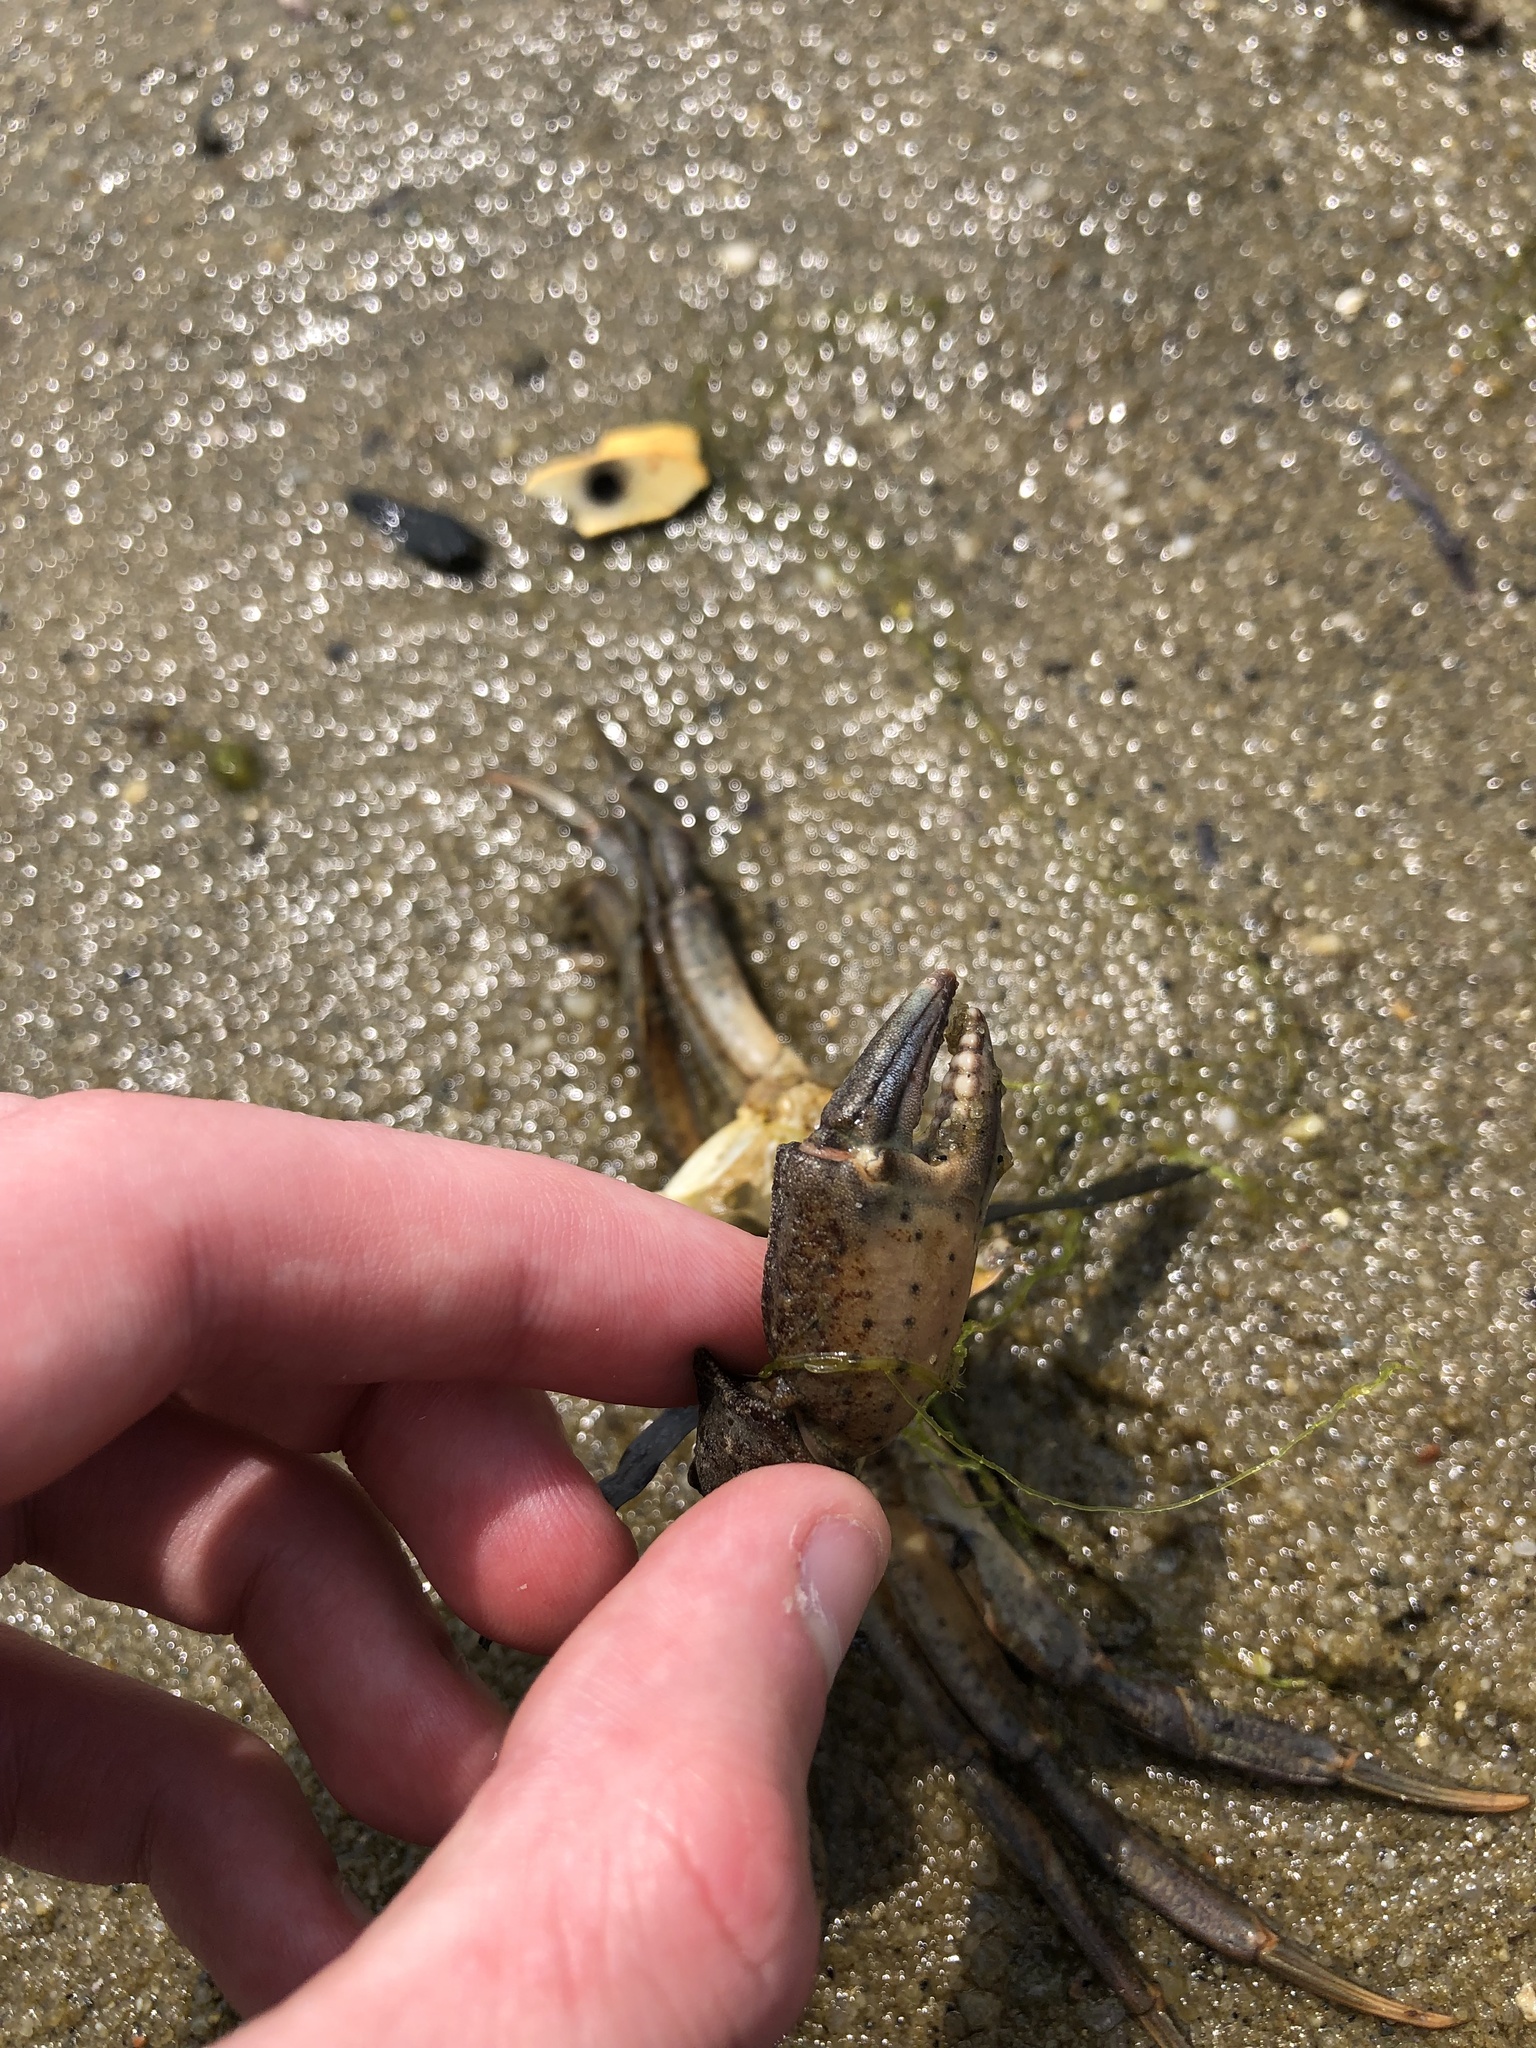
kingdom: Animalia
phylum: Arthropoda
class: Malacostraca
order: Decapoda
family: Carcinidae
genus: Carcinus
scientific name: Carcinus maenas
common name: European green crab
